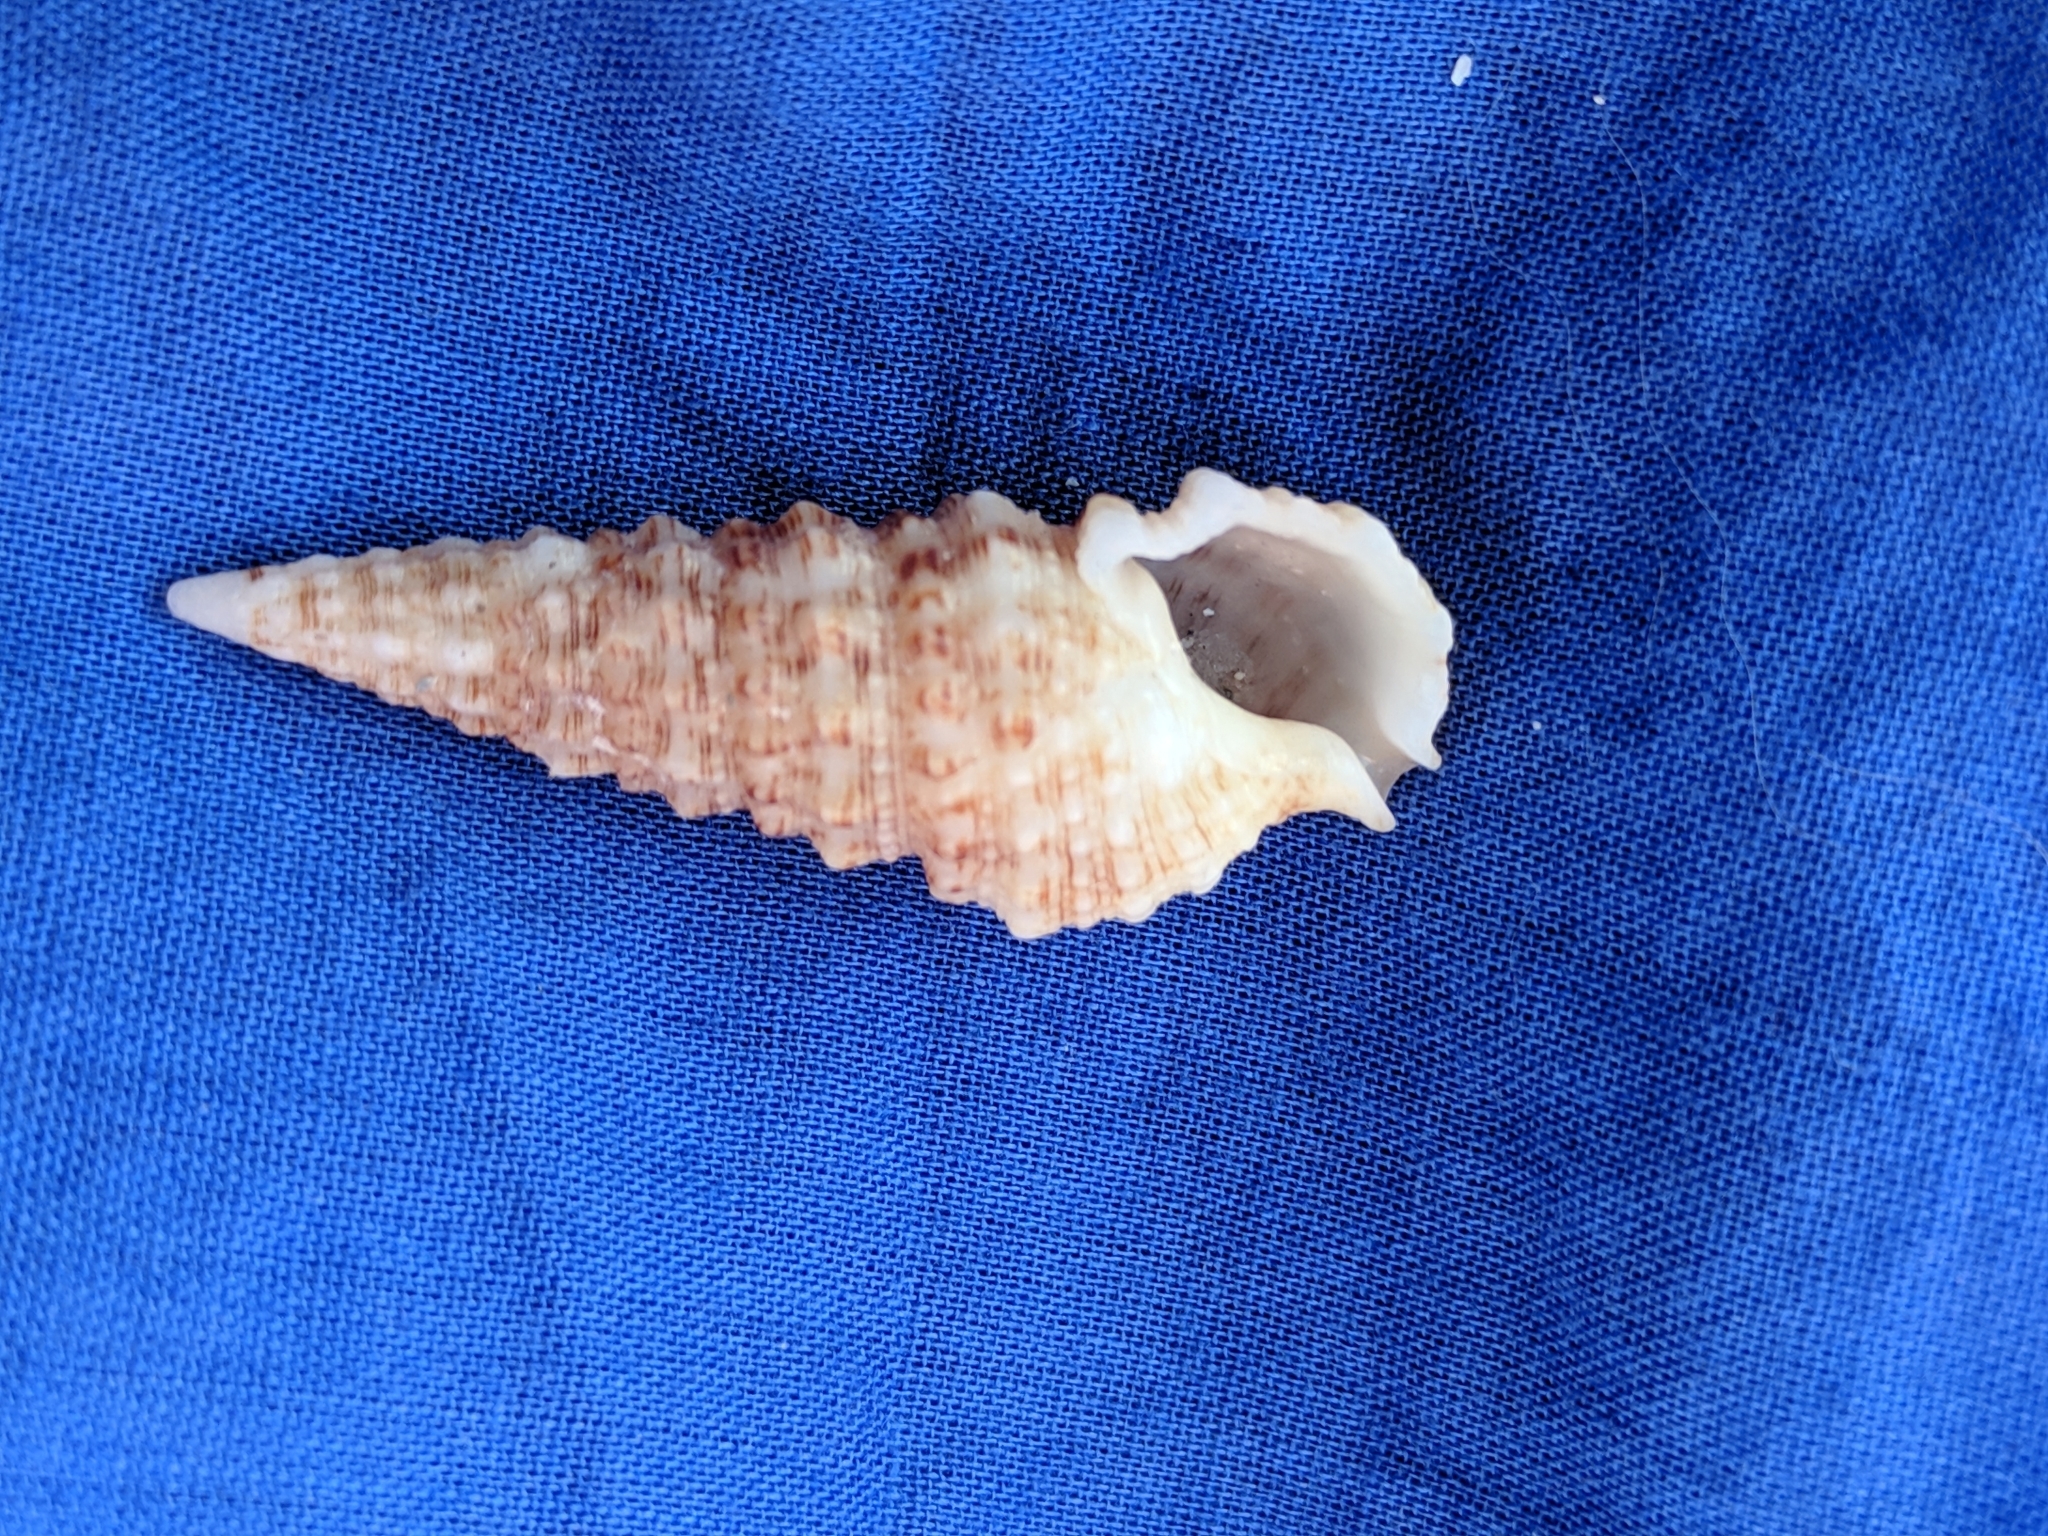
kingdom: Animalia
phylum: Mollusca
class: Gastropoda
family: Cerithiidae
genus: Cerithium
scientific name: Cerithium atratum
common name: Dark cerith
